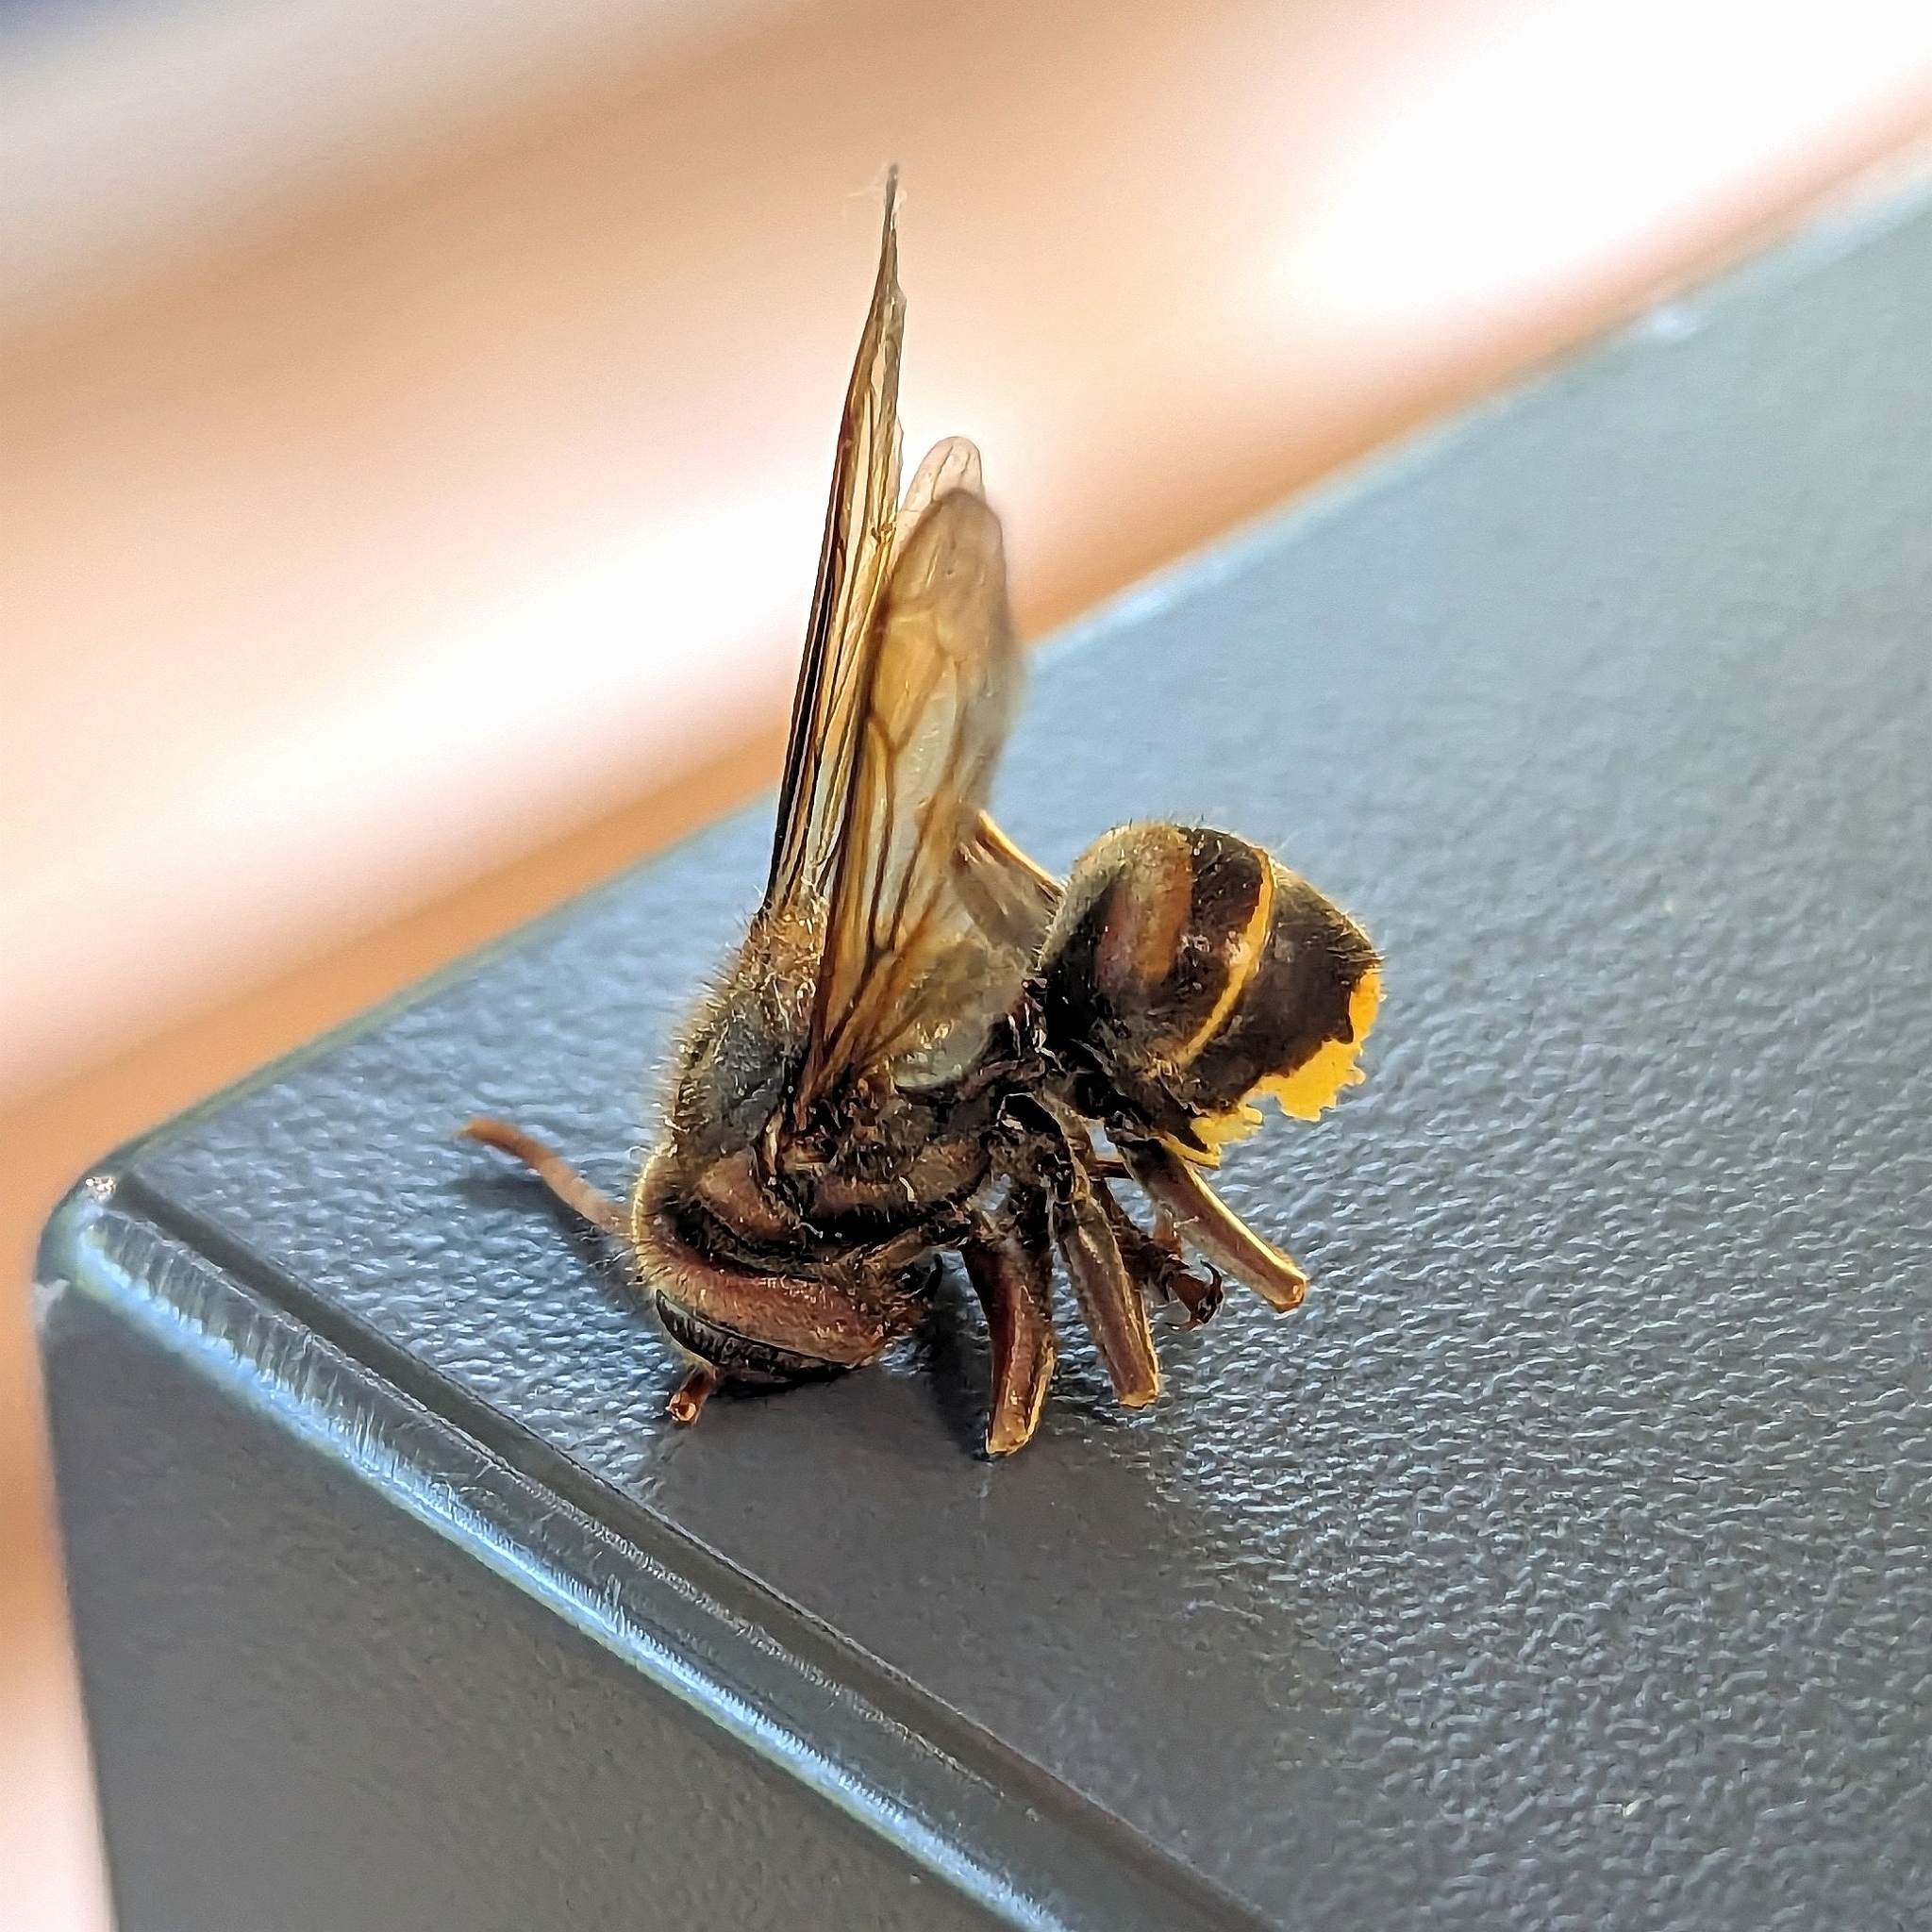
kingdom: Animalia
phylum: Arthropoda
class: Insecta
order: Hymenoptera
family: Vespidae
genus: Vespa
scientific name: Vespa crabro
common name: Hornet
